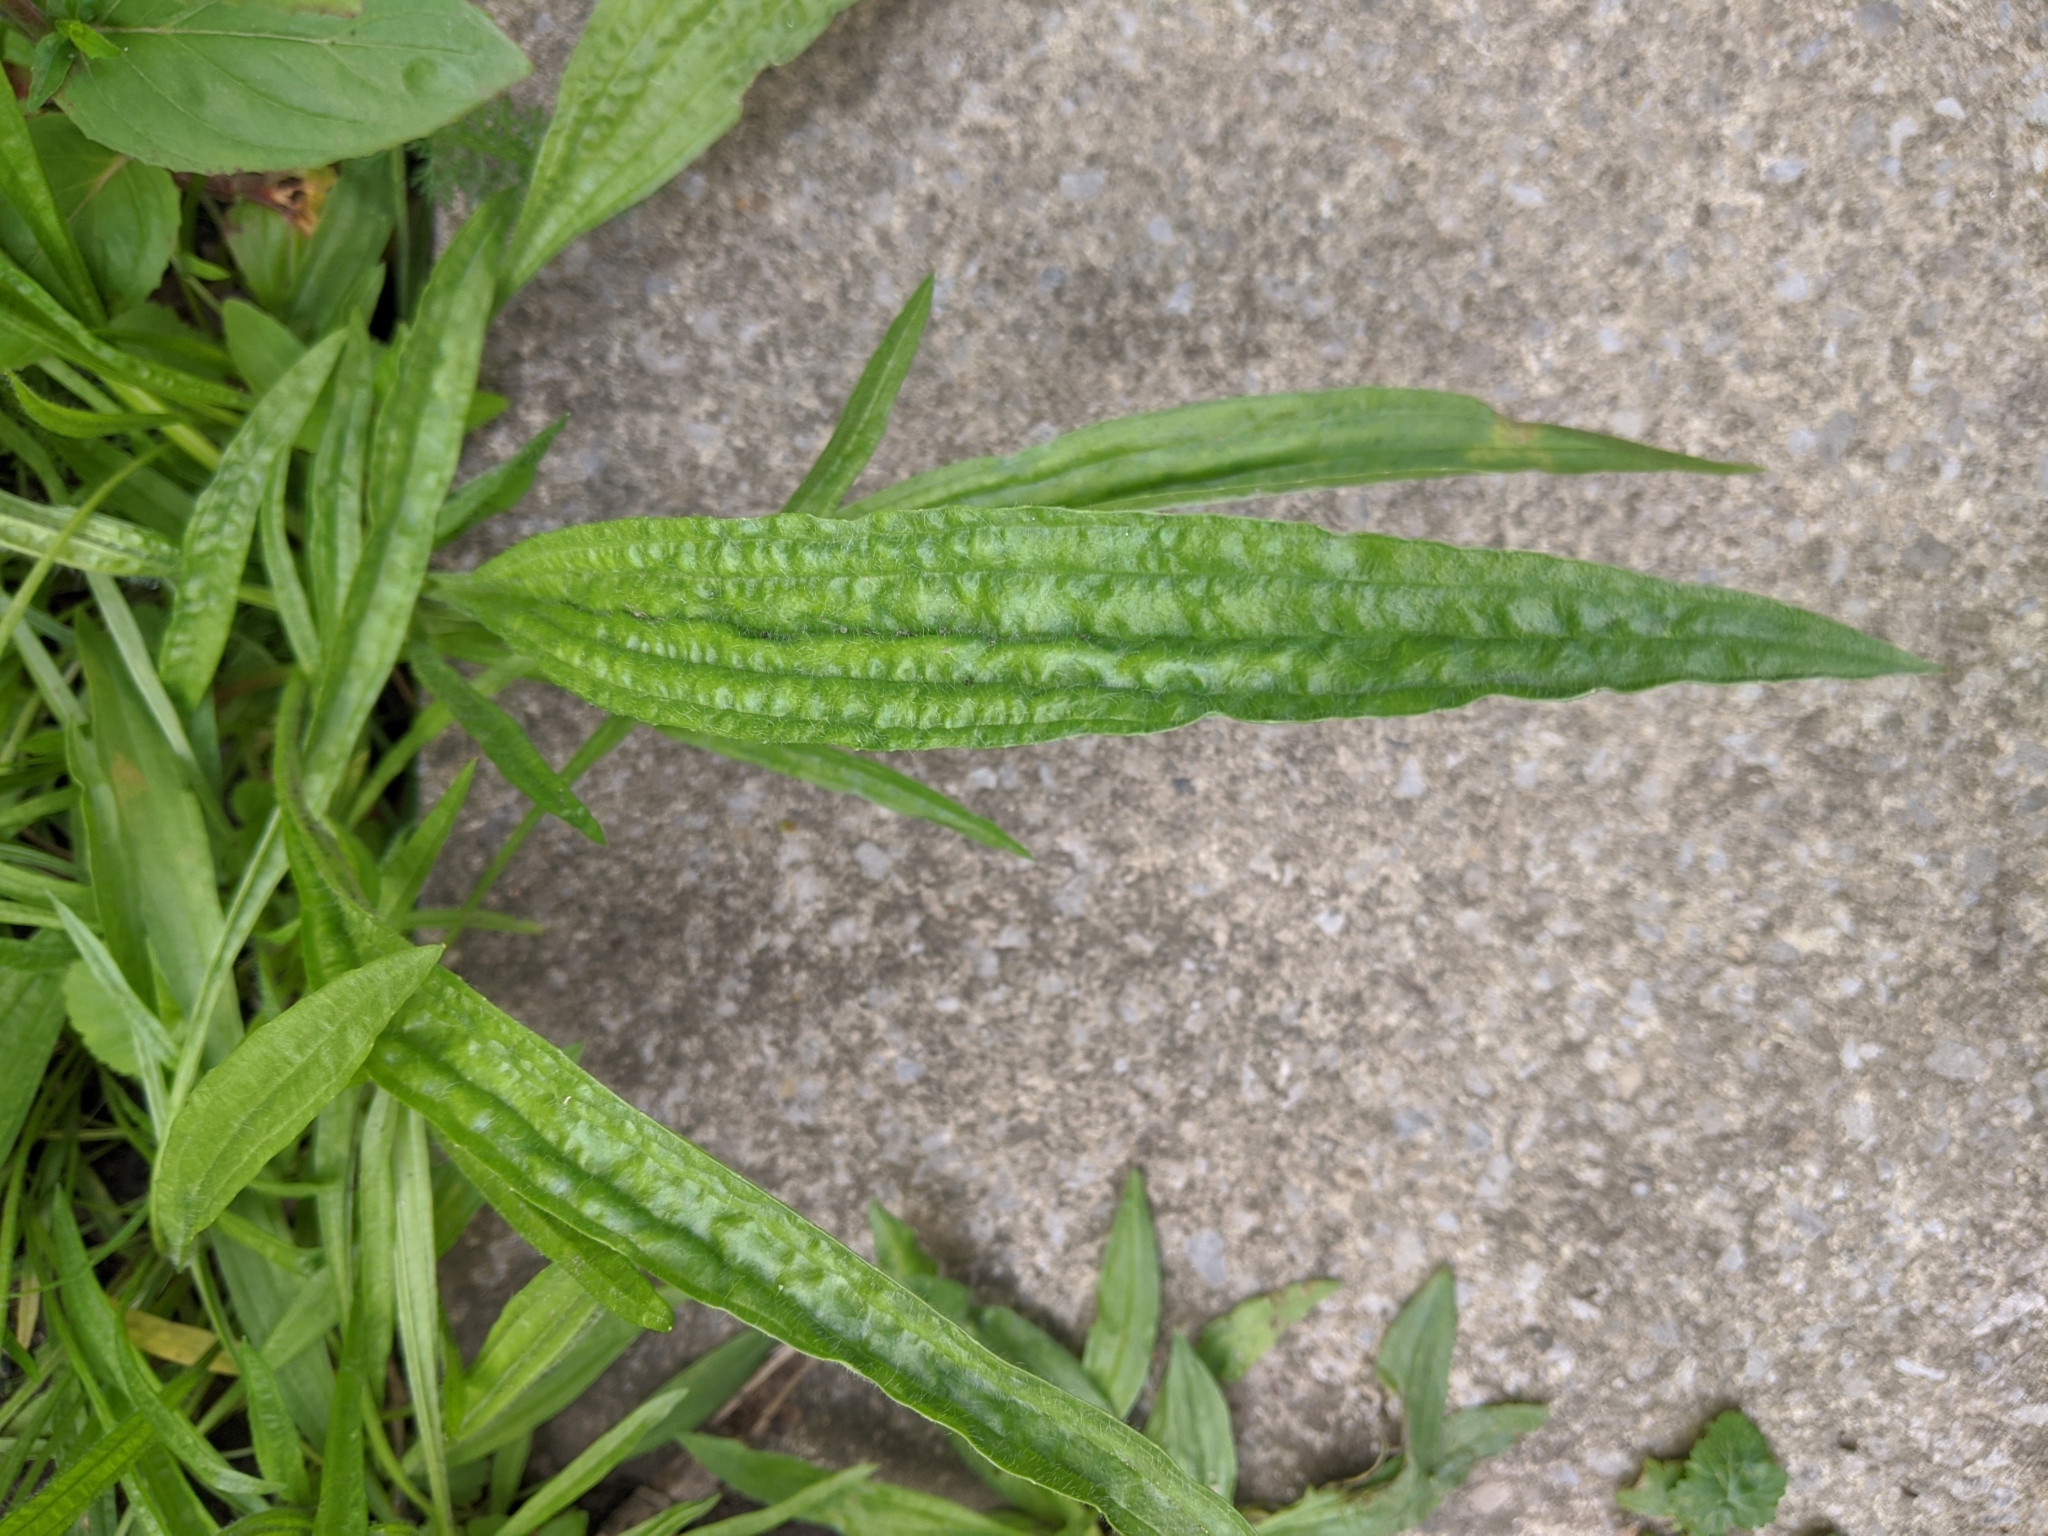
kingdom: Plantae
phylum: Tracheophyta
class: Magnoliopsida
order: Lamiales
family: Plantaginaceae
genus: Plantago
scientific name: Plantago lanceolata
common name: Ribwort plantain
